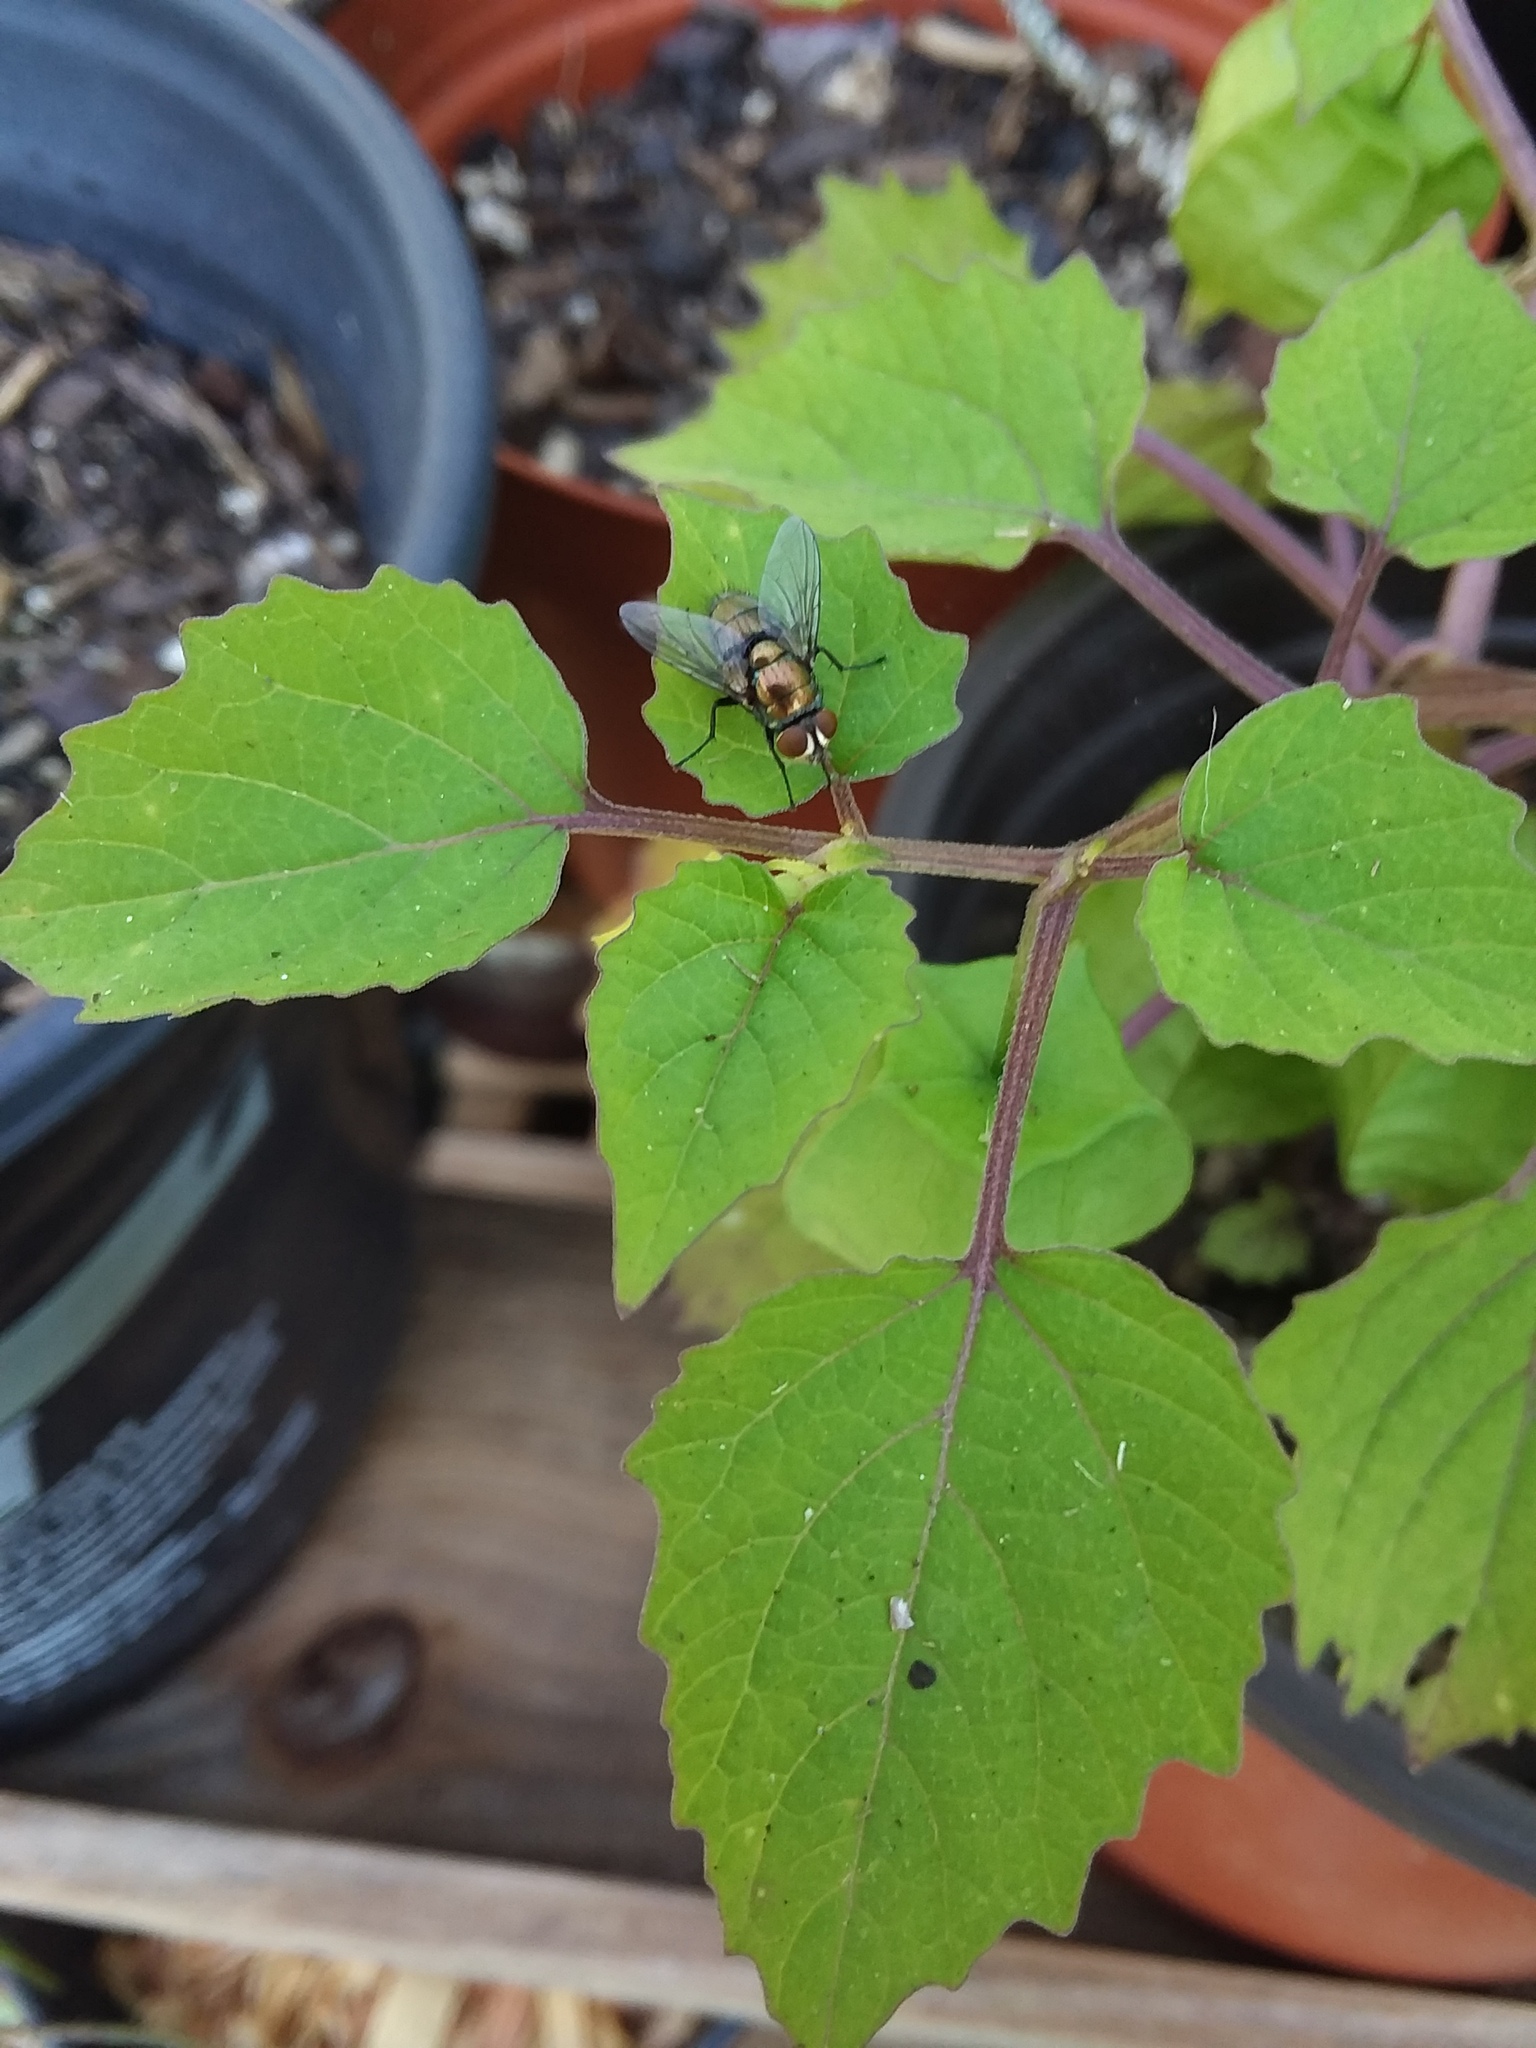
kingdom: Plantae
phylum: Tracheophyta
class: Magnoliopsida
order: Solanales
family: Solanaceae
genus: Physalis
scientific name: Physalis cordata
